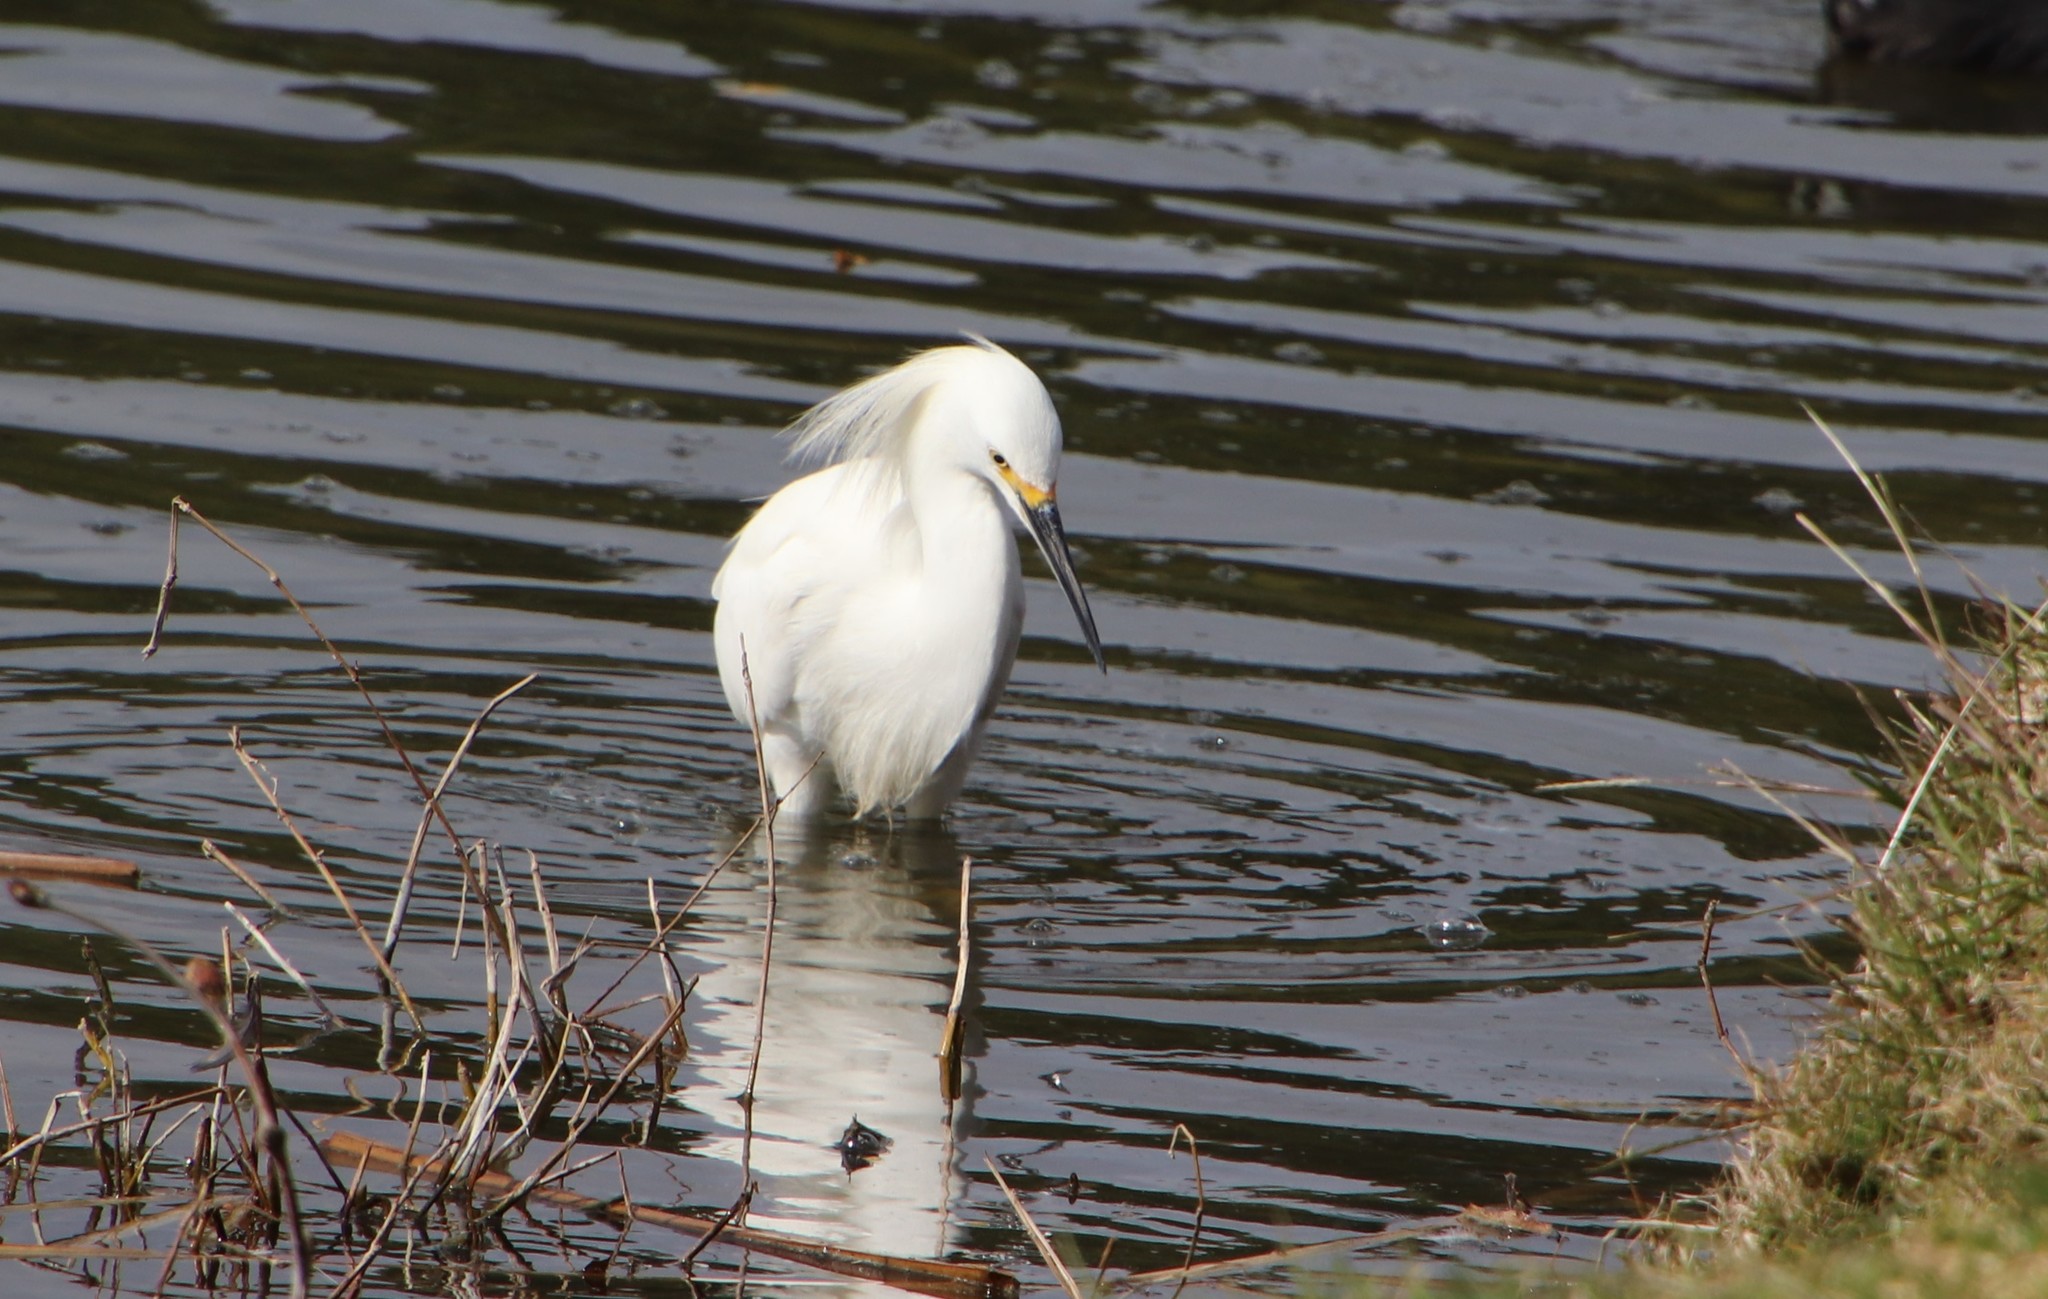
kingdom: Animalia
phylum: Chordata
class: Aves
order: Pelecaniformes
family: Ardeidae
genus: Egretta
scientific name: Egretta thula
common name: Snowy egret
